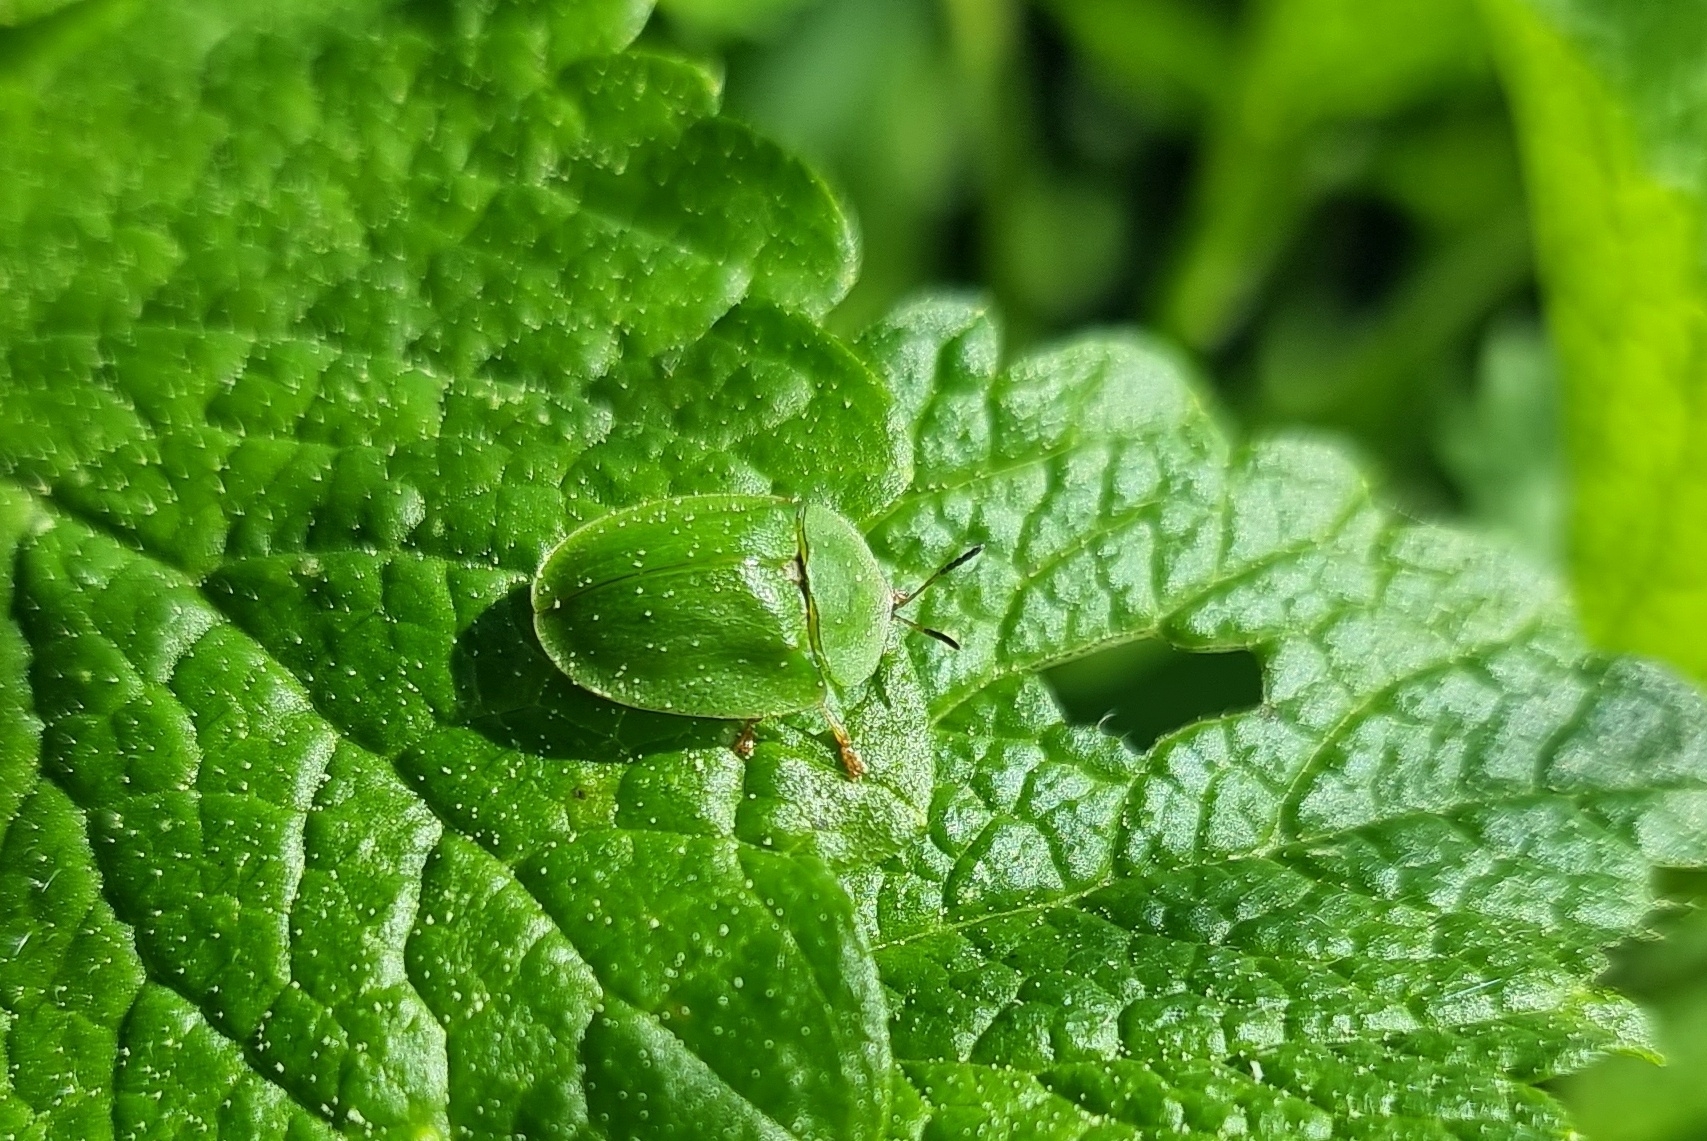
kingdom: Animalia
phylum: Arthropoda
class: Insecta
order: Coleoptera
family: Chrysomelidae
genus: Cassida
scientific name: Cassida viridis
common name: Green tortoise beetle
